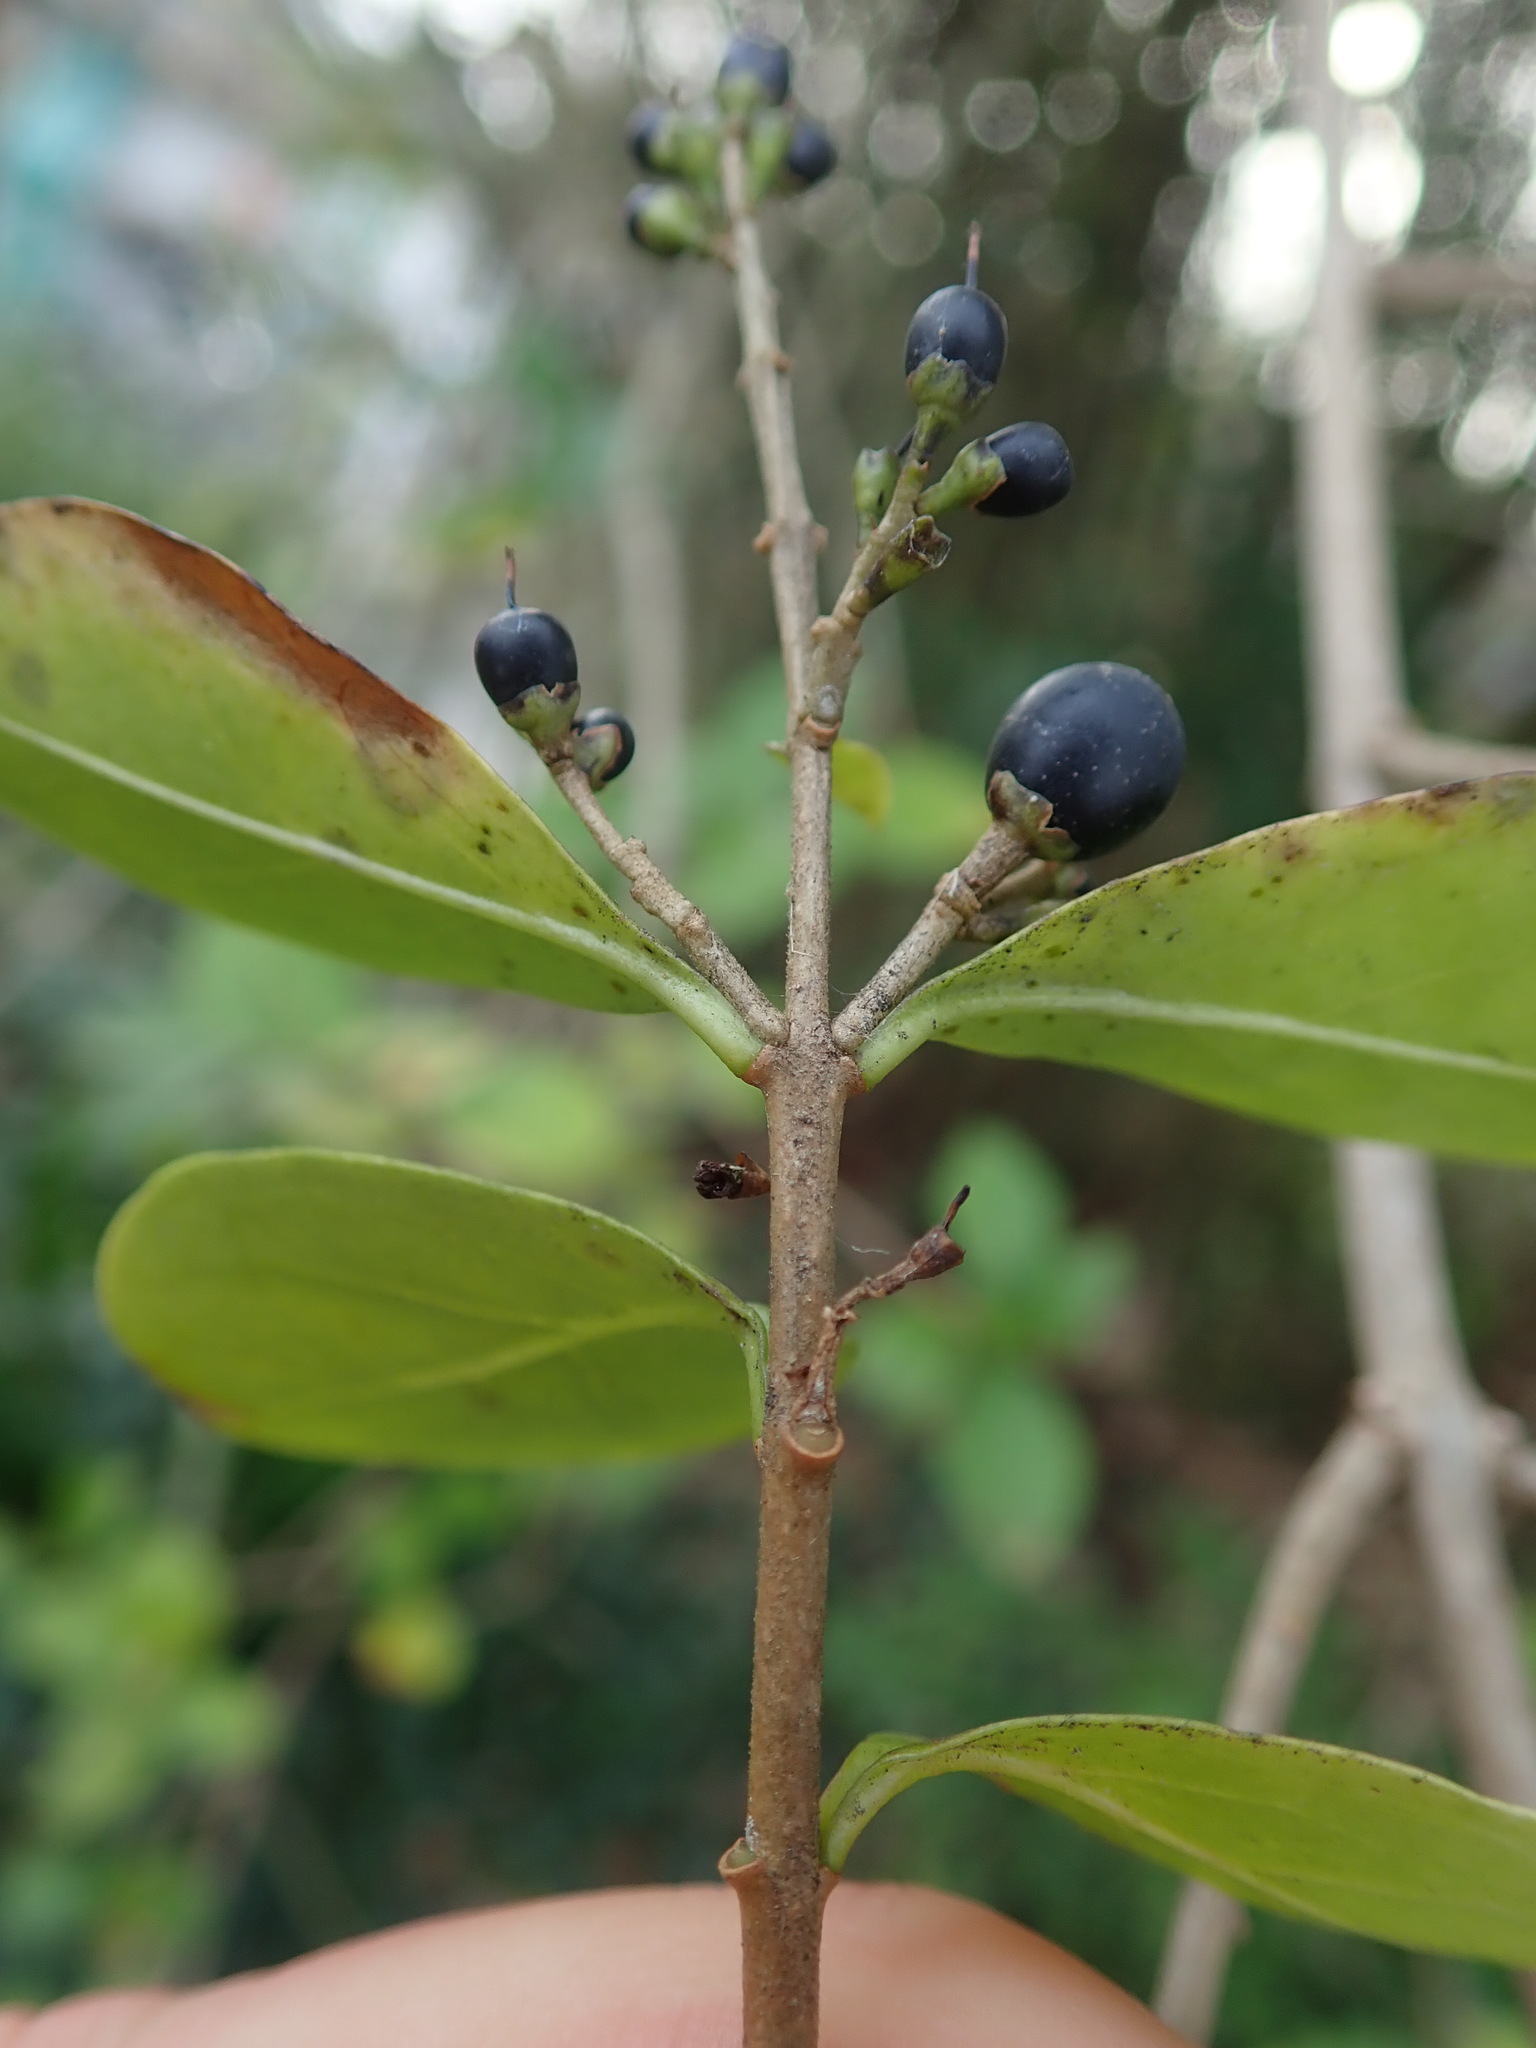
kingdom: Plantae
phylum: Tracheophyta
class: Magnoliopsida
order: Lamiales
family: Oleaceae
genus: Ligustrum
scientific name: Ligustrum ovalifolium
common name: California privet
